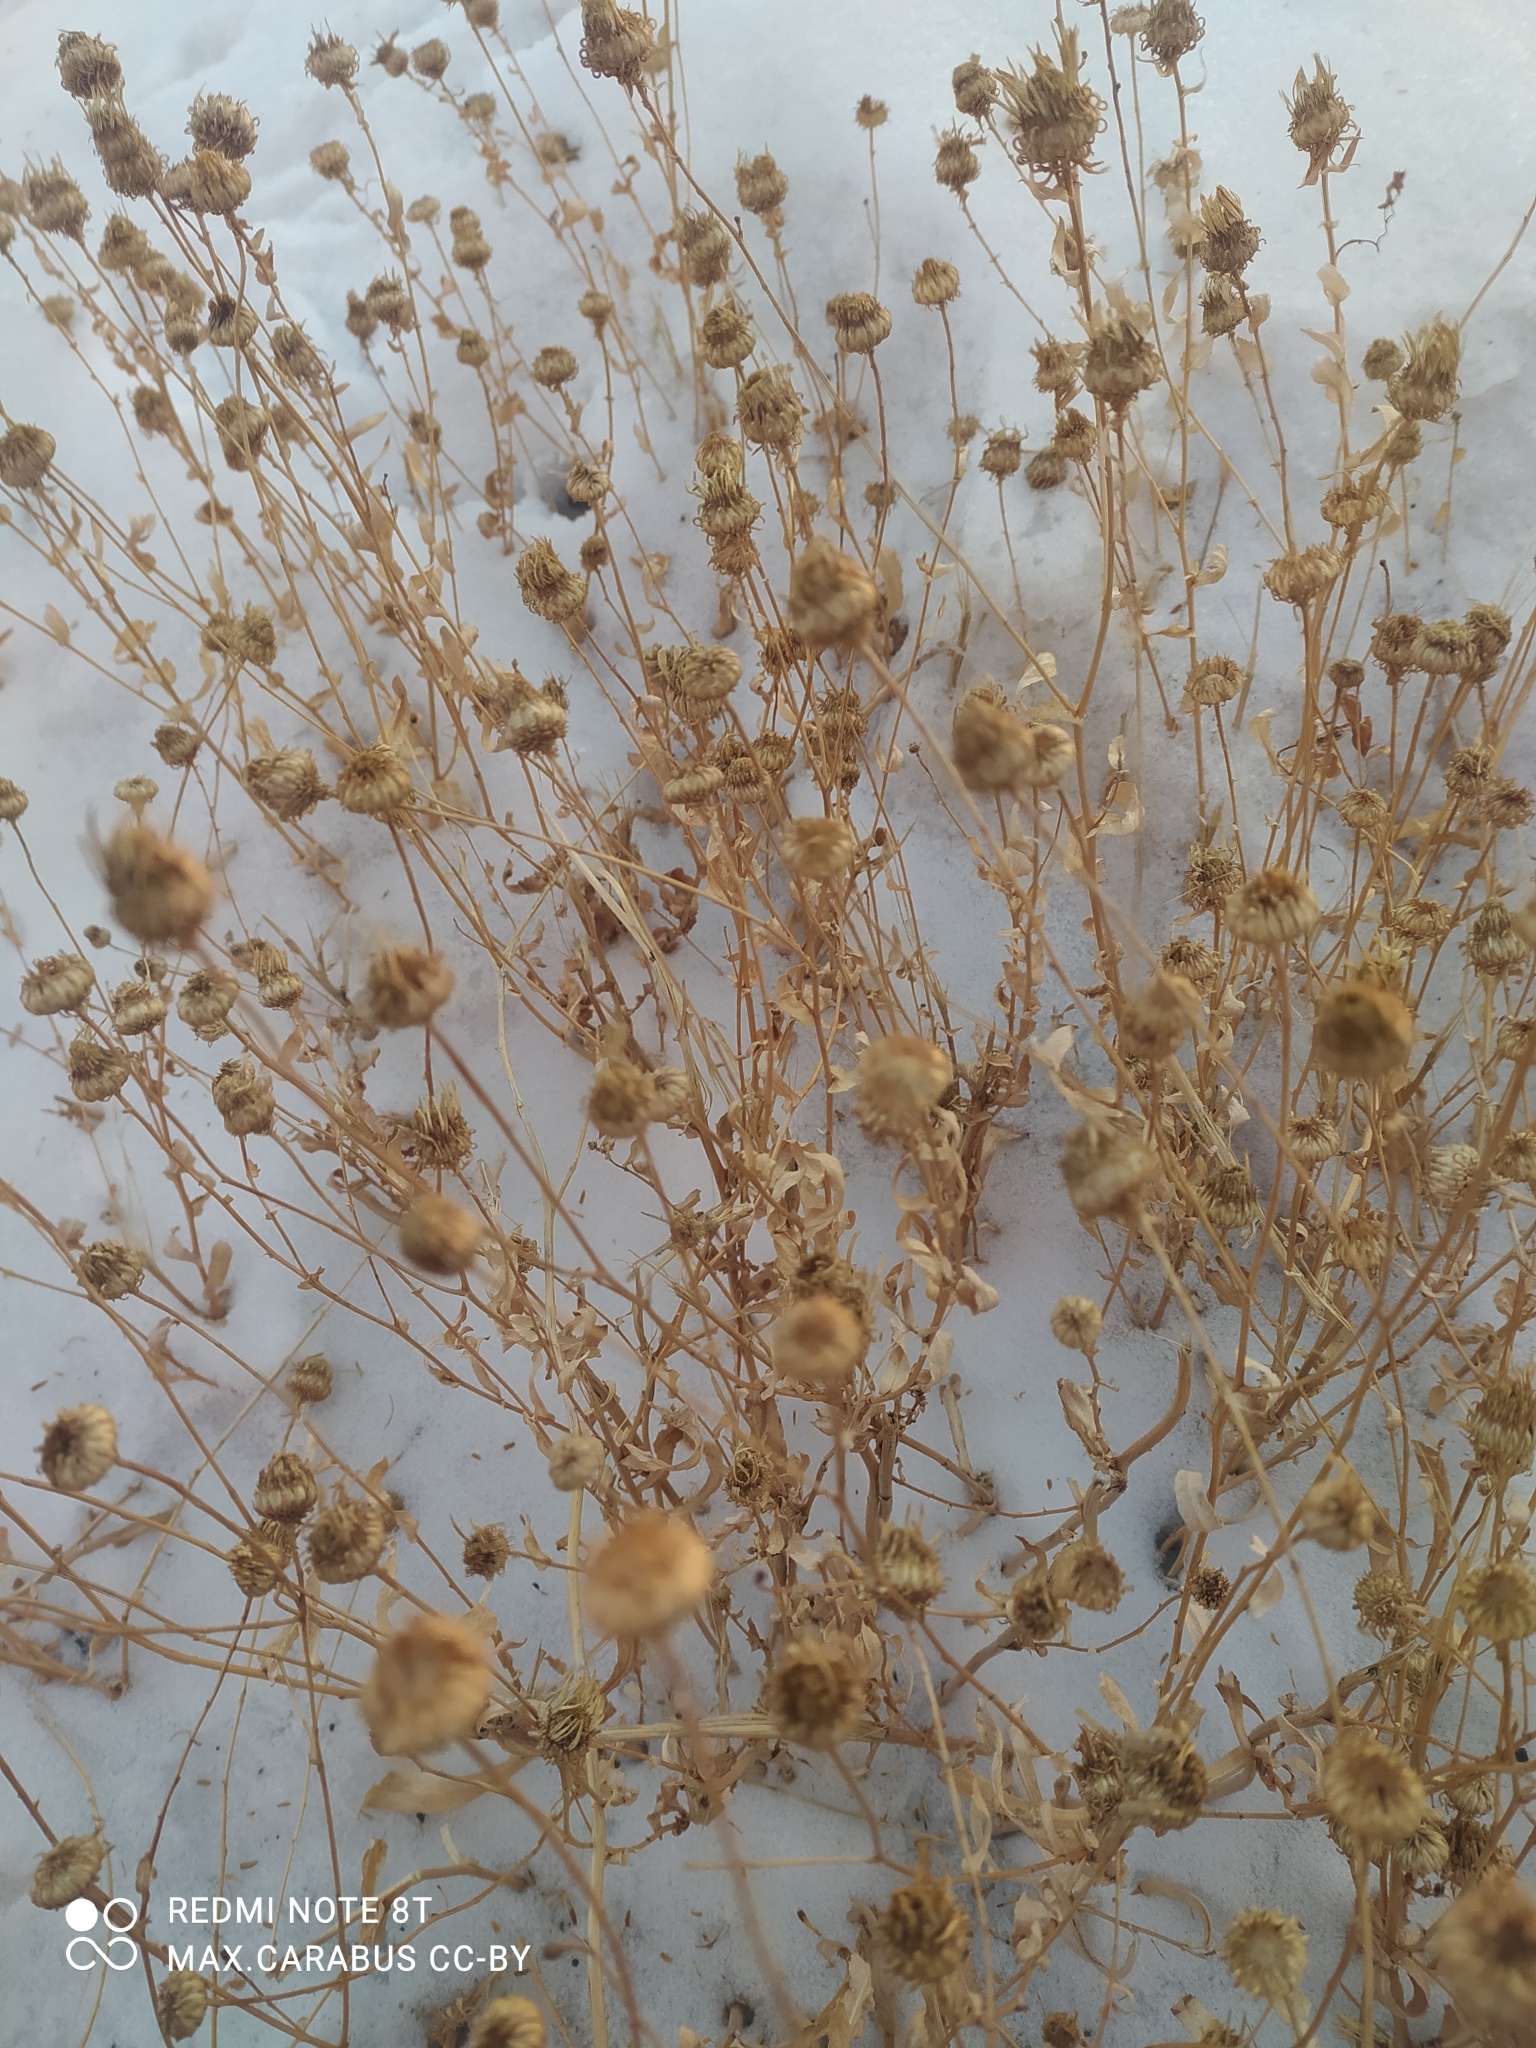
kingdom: Plantae
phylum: Tracheophyta
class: Magnoliopsida
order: Asterales
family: Asteraceae
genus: Grindelia
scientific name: Grindelia squarrosa
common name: Curly-cup gumweed
